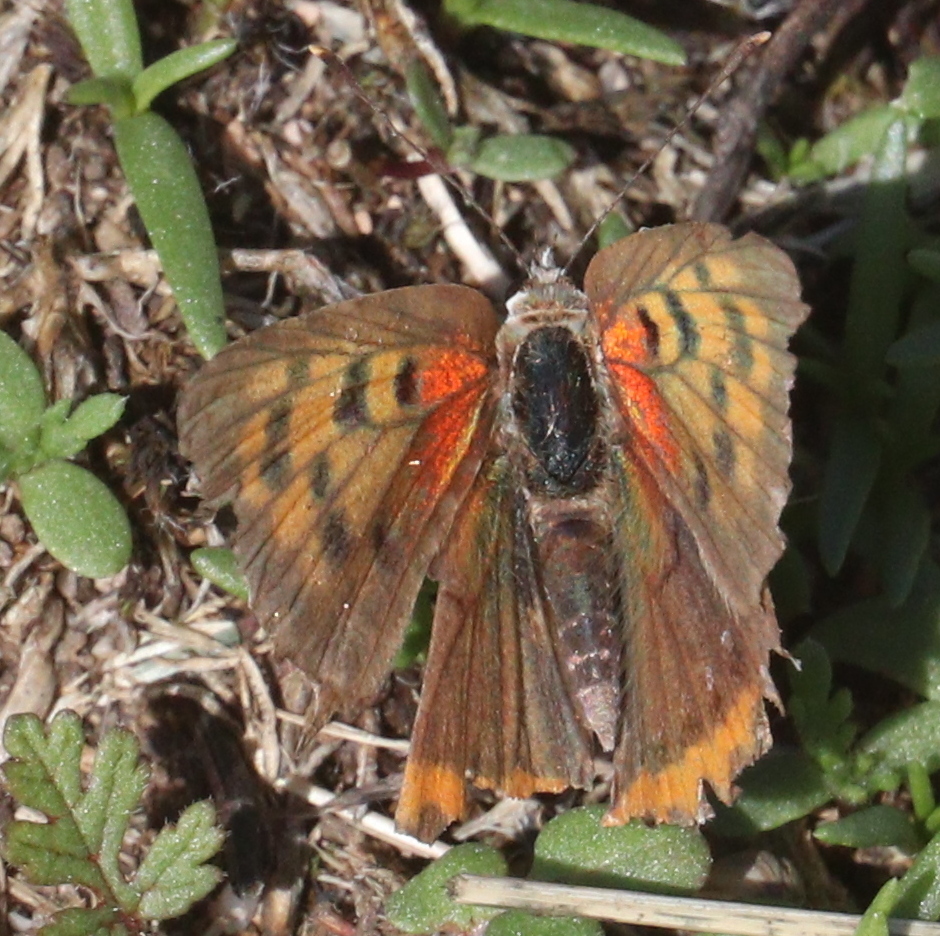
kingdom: Animalia
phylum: Arthropoda
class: Insecta
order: Lepidoptera
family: Lycaenidae
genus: Lycaena
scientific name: Lycaena phlaeas
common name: Small copper
